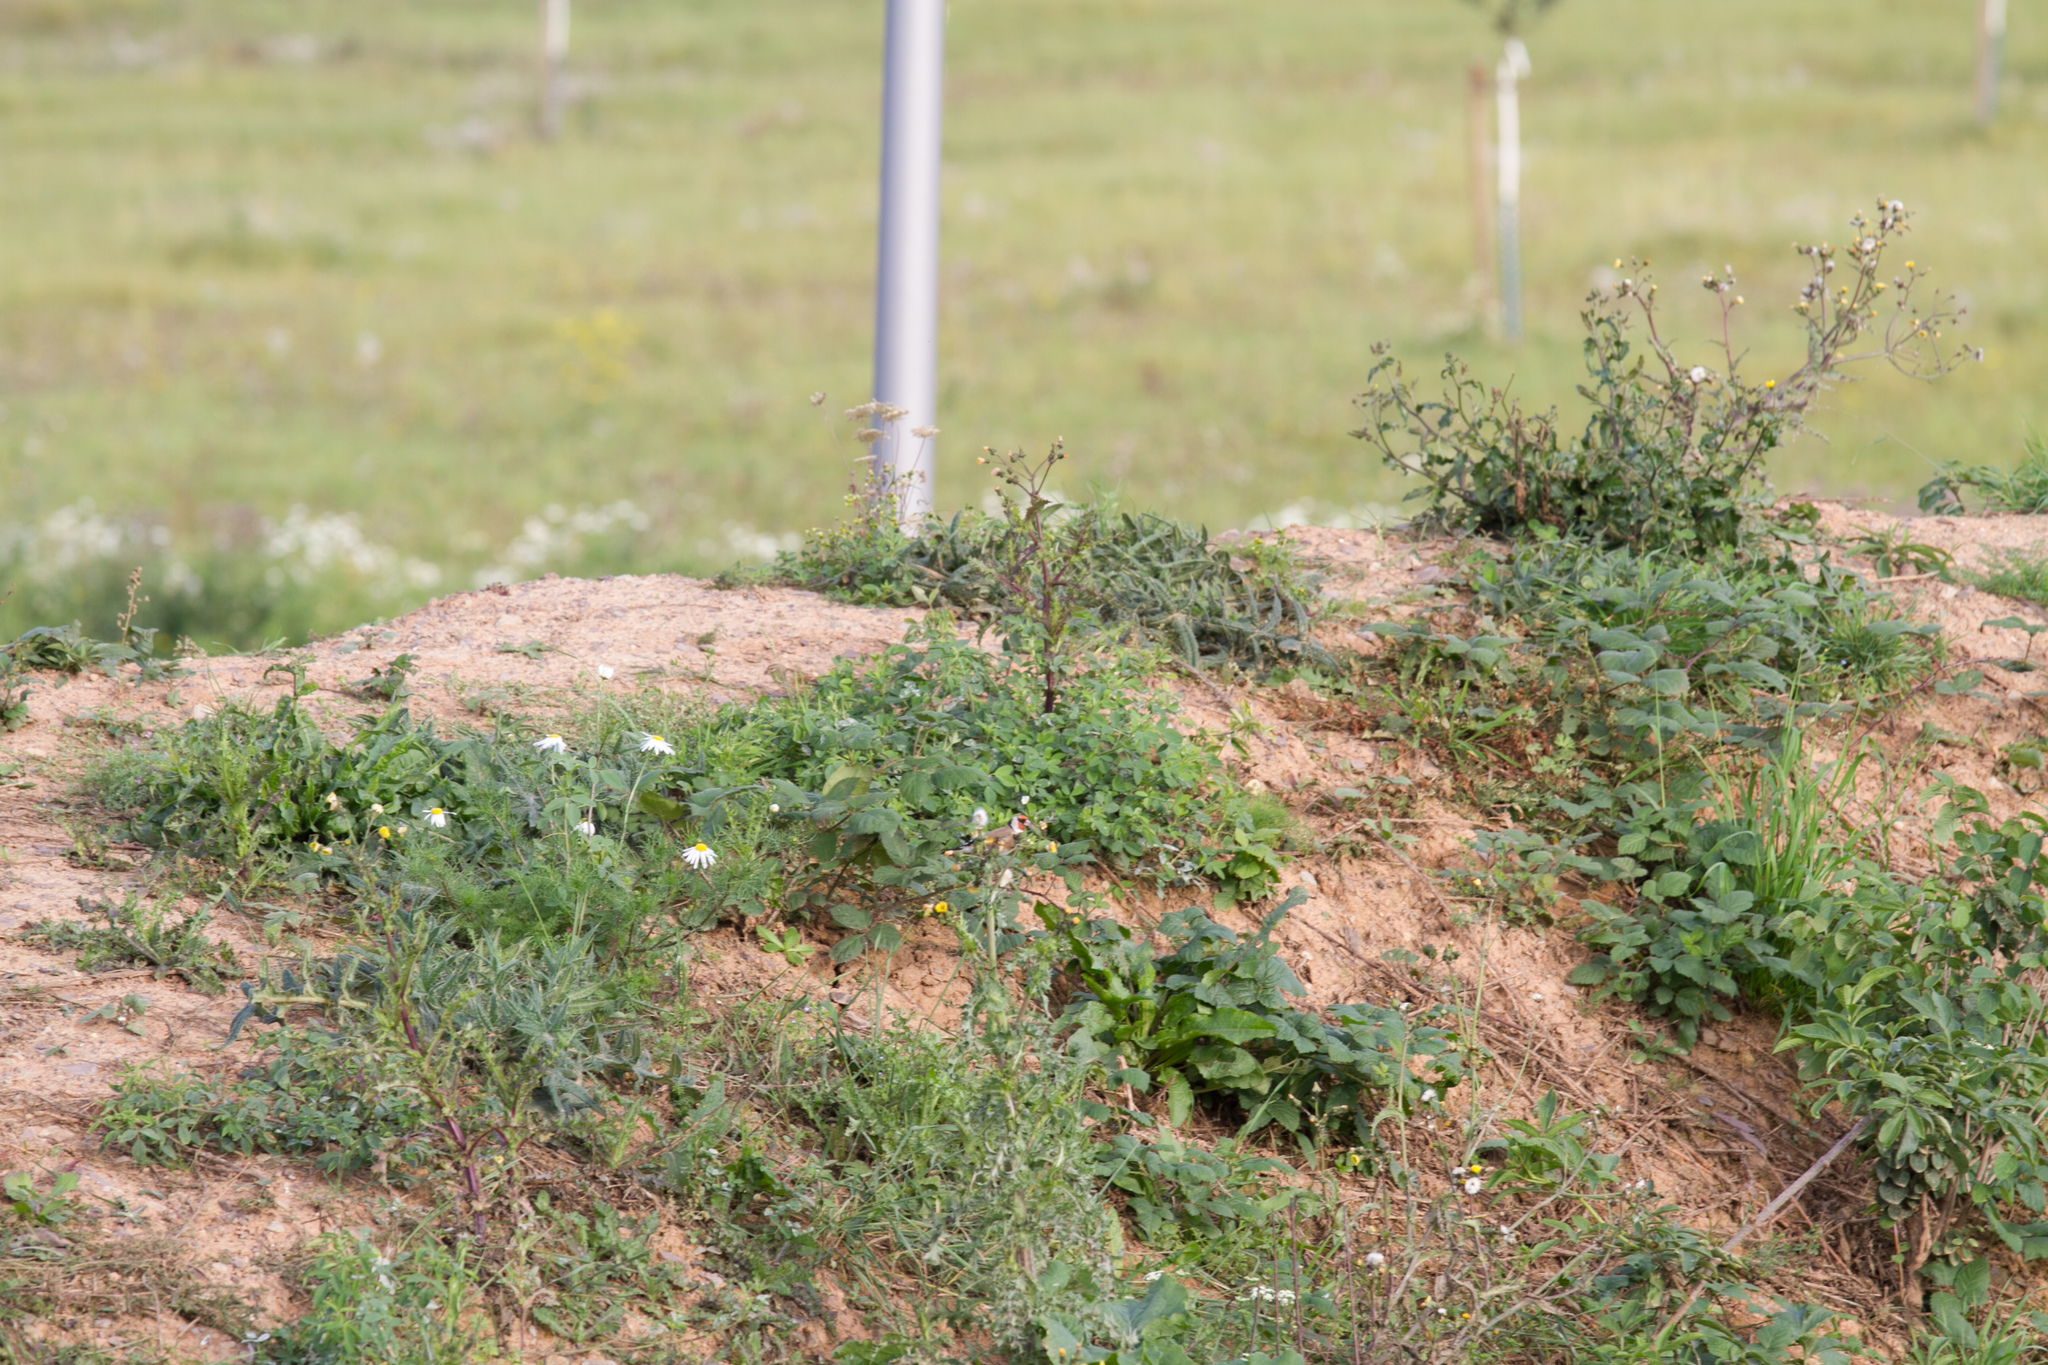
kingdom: Animalia
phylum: Chordata
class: Aves
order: Passeriformes
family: Fringillidae
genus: Carduelis
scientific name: Carduelis carduelis
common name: European goldfinch
